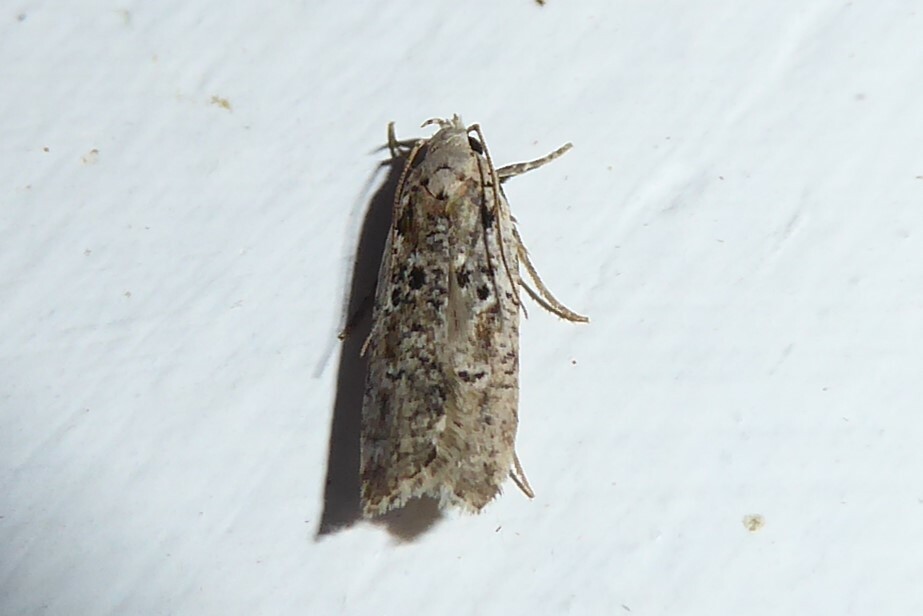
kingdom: Animalia
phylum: Arthropoda
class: Insecta
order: Lepidoptera
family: Gelechiidae
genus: Anisoplaca
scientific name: Anisoplaca achyrota
